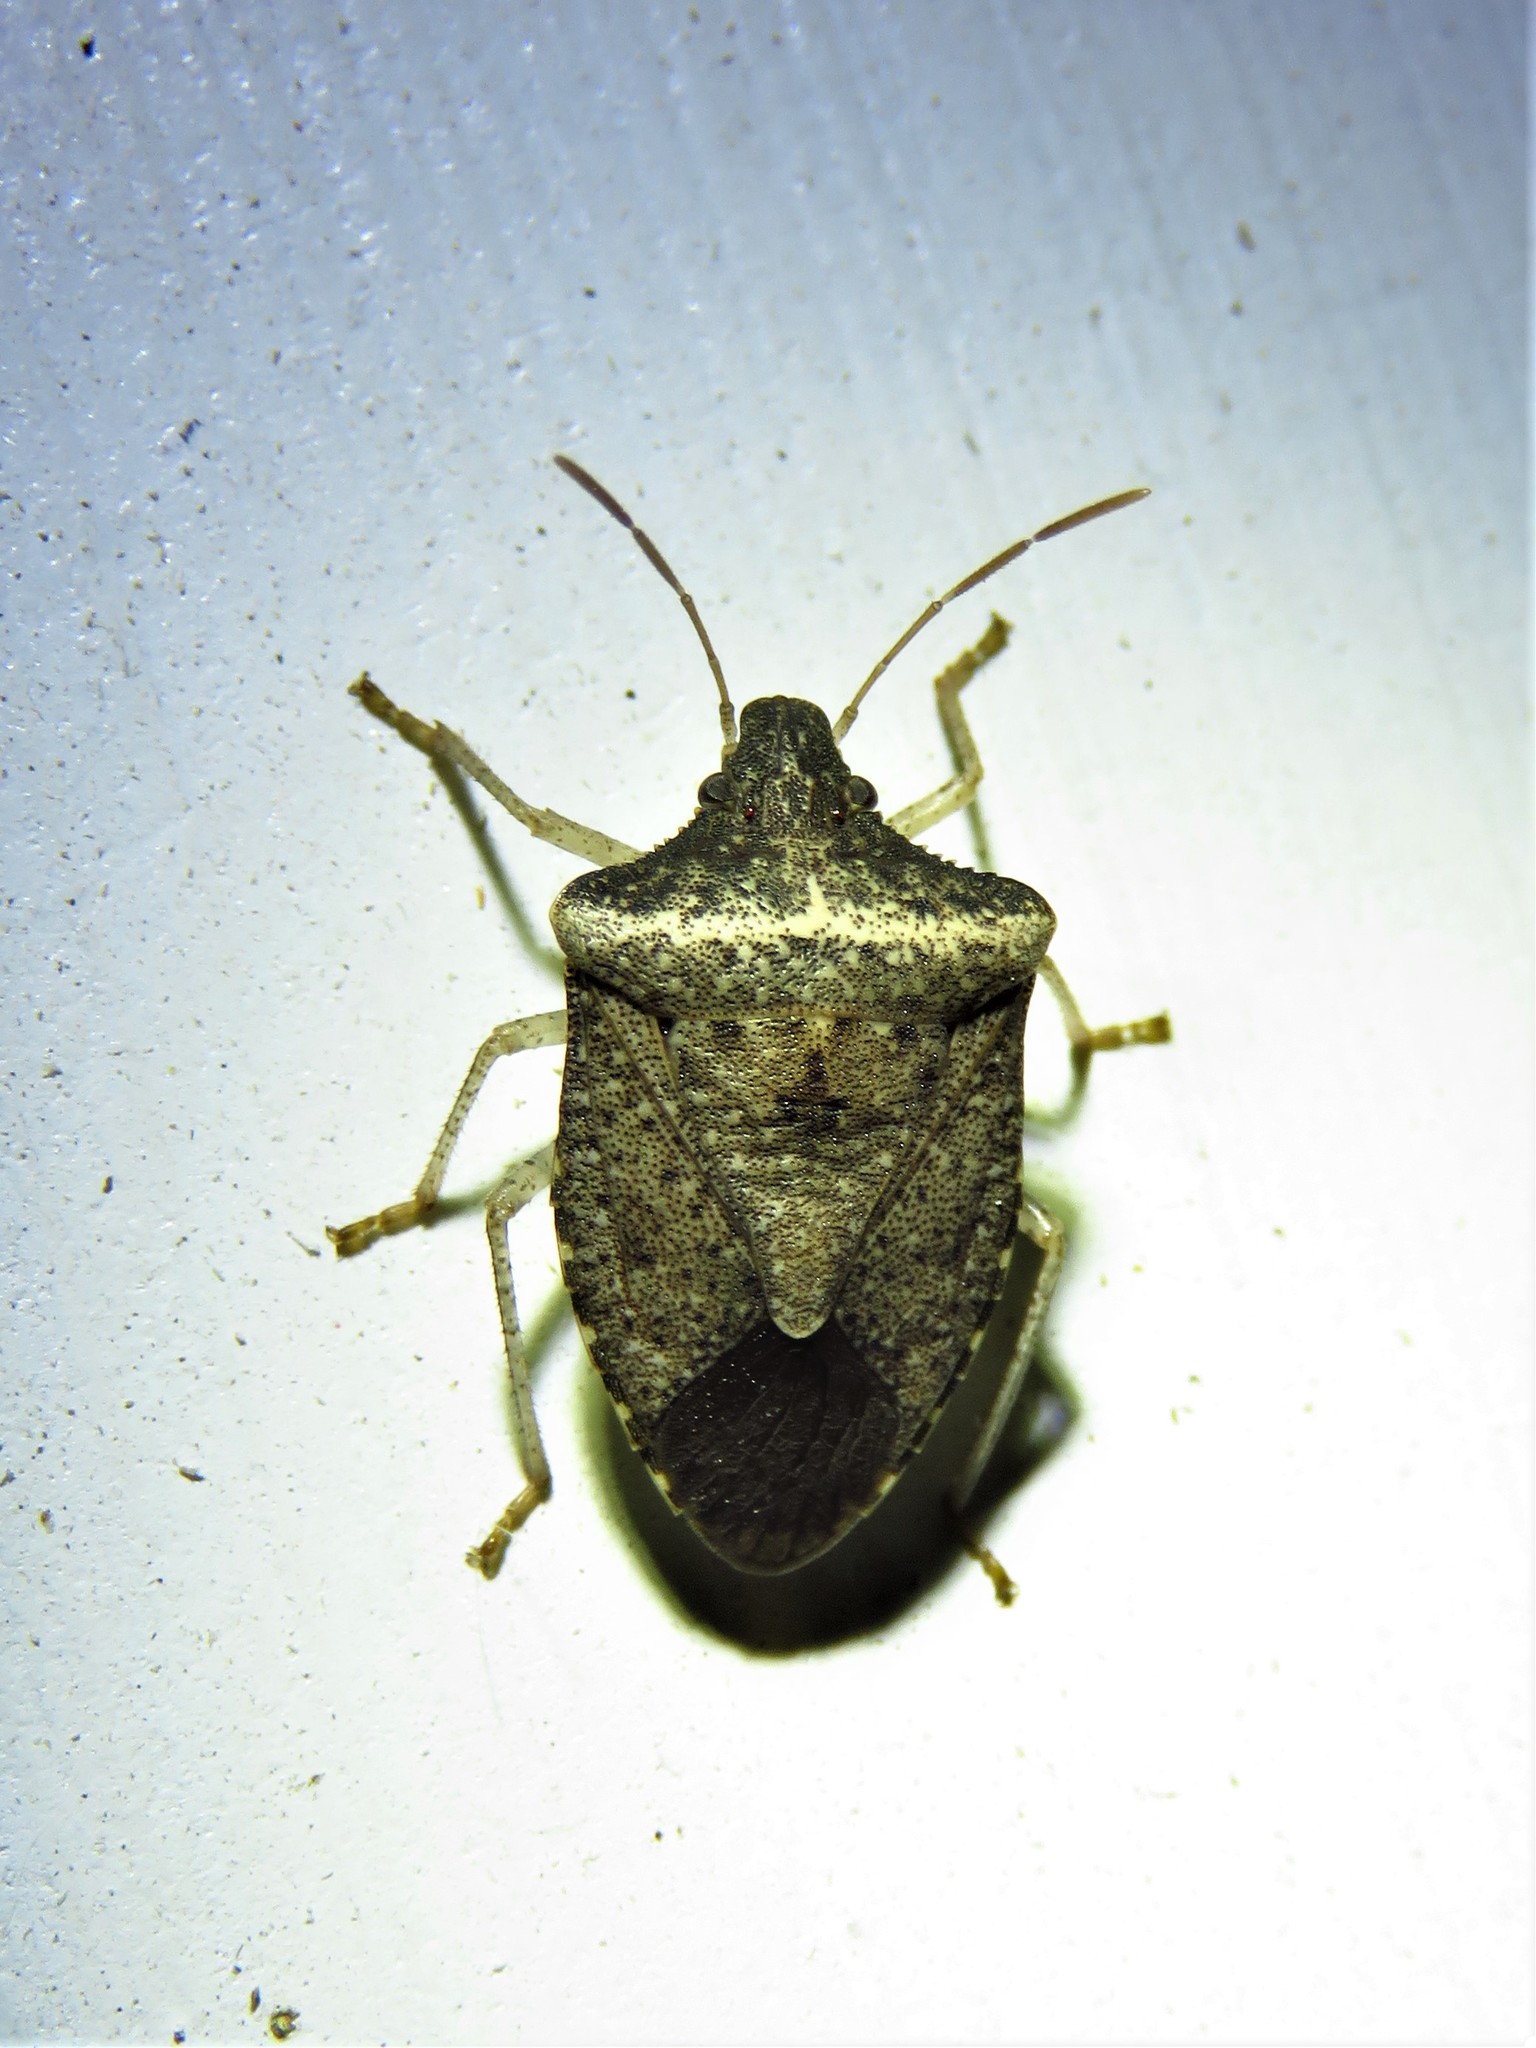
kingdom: Animalia
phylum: Arthropoda
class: Insecta
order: Hemiptera
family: Pentatomidae
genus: Euschistus
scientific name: Euschistus obscurus
